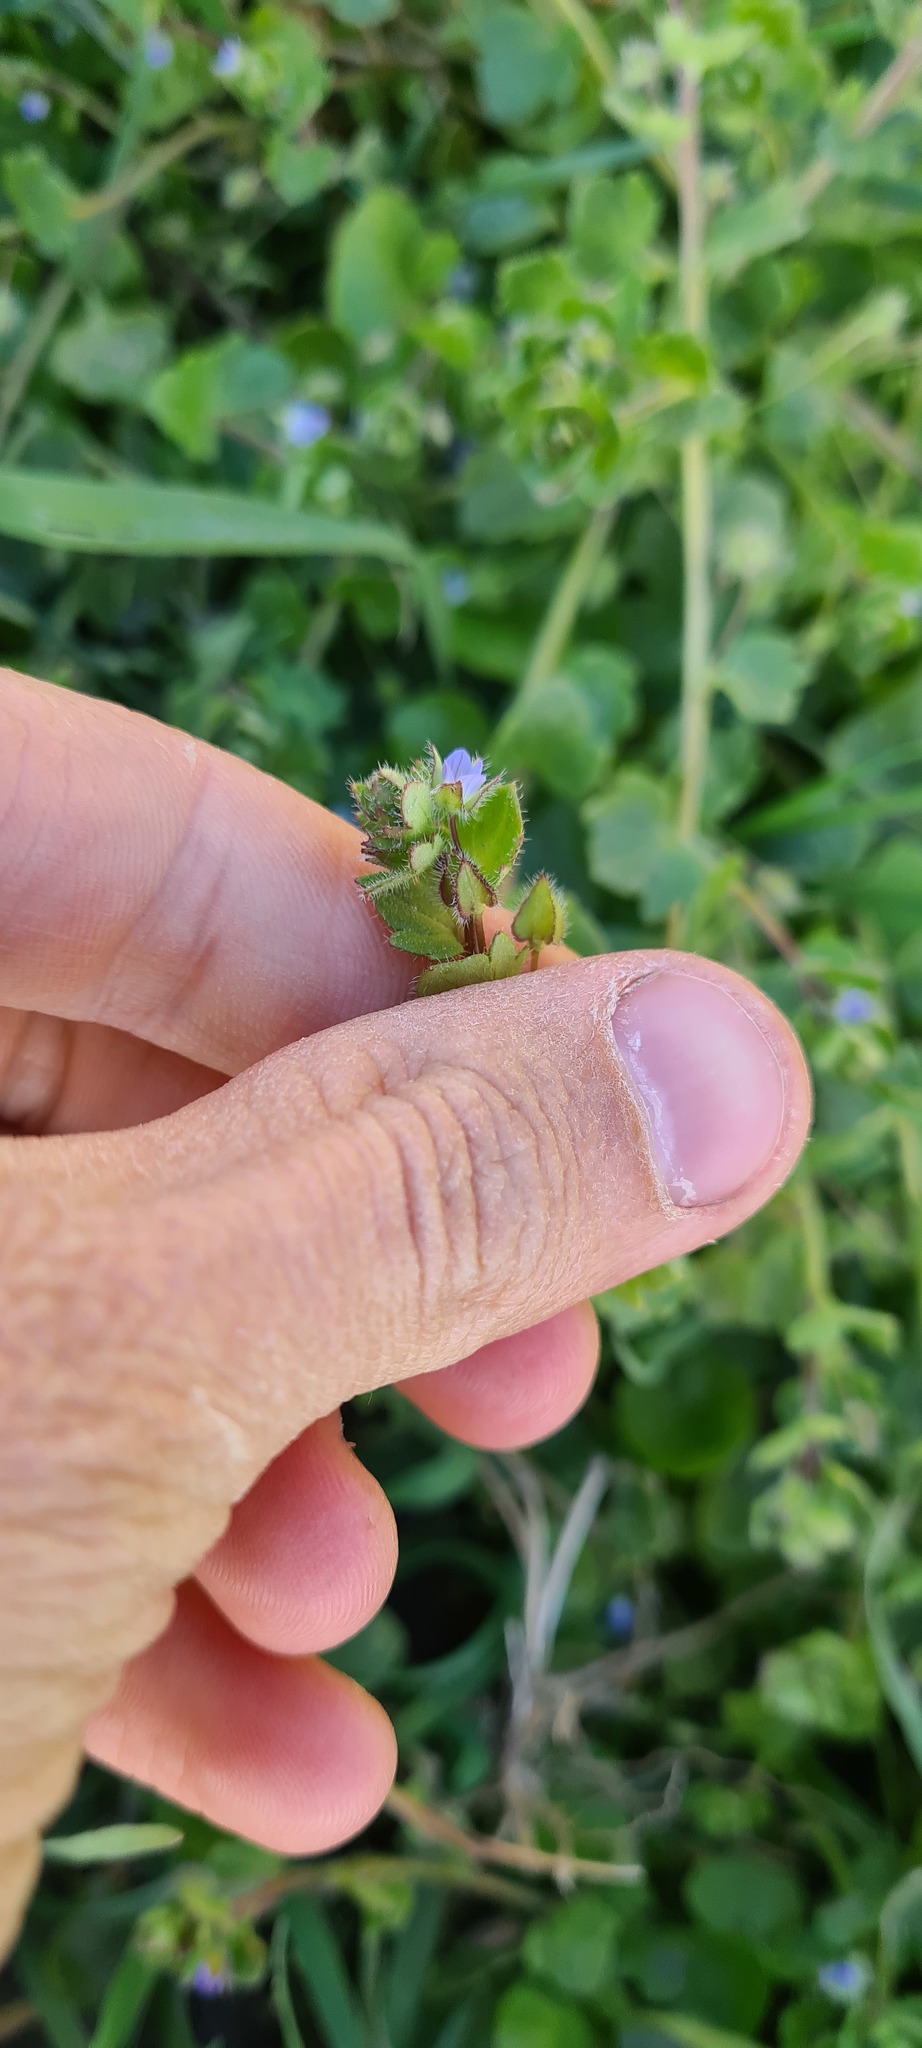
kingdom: Plantae
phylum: Tracheophyta
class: Magnoliopsida
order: Lamiales
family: Plantaginaceae
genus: Veronica
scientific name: Veronica sublobata
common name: False ivy-leaved speedwell
